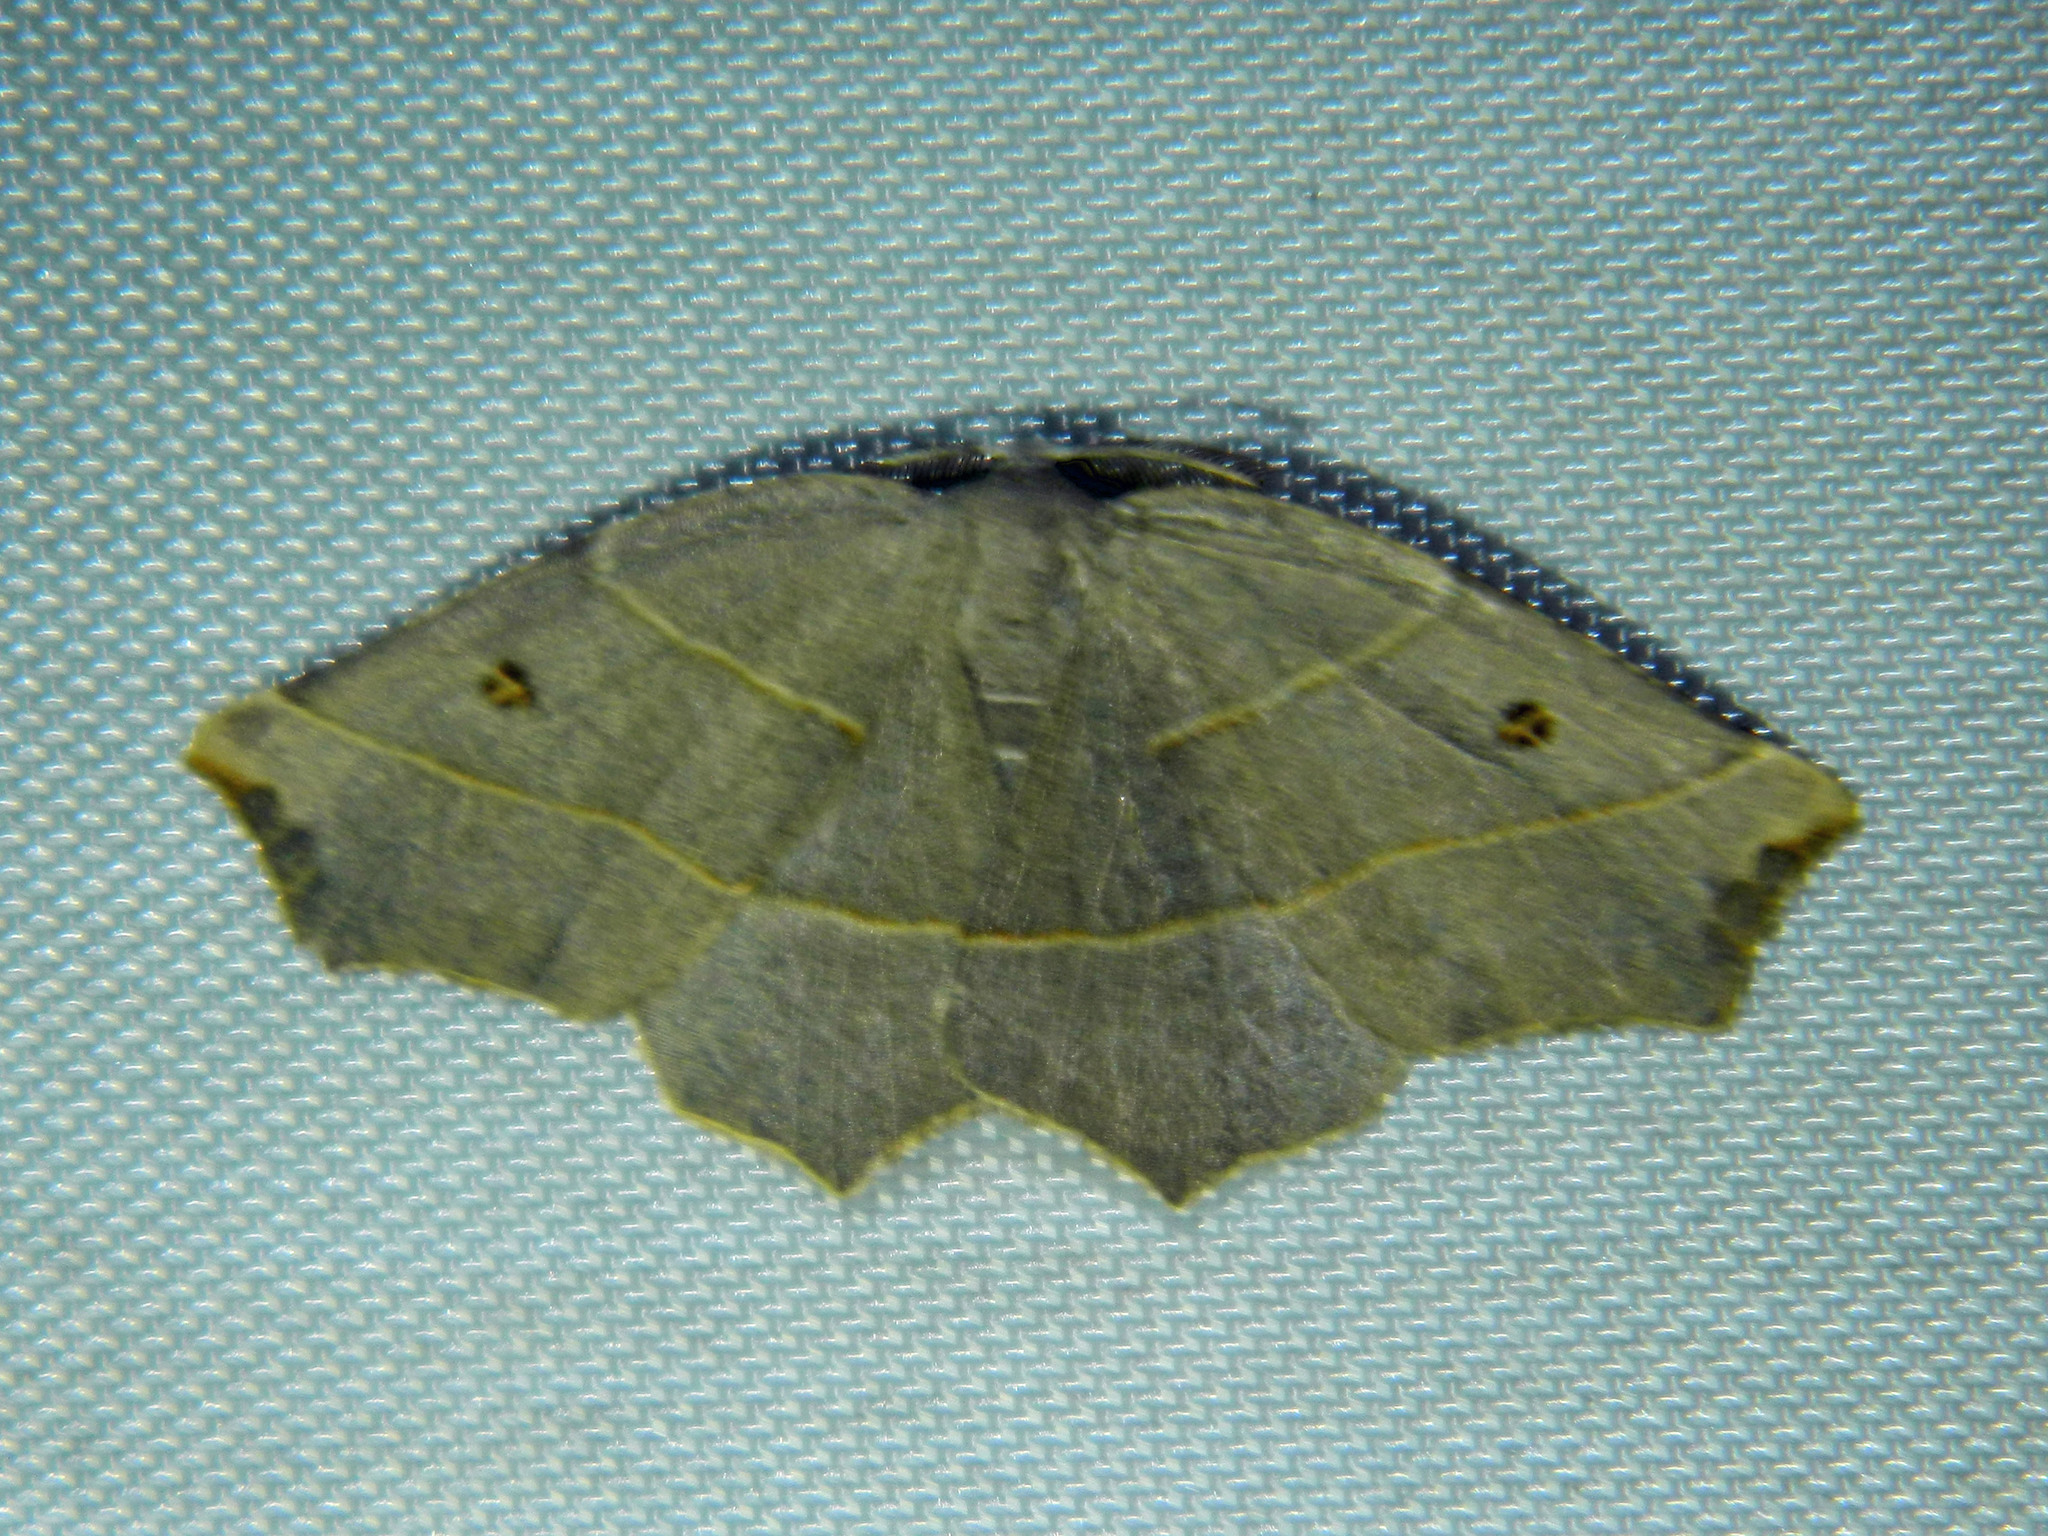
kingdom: Animalia
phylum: Arthropoda
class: Insecta
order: Lepidoptera
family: Geometridae
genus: Metanema
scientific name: Metanema inatomaria
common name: Pale metanema
